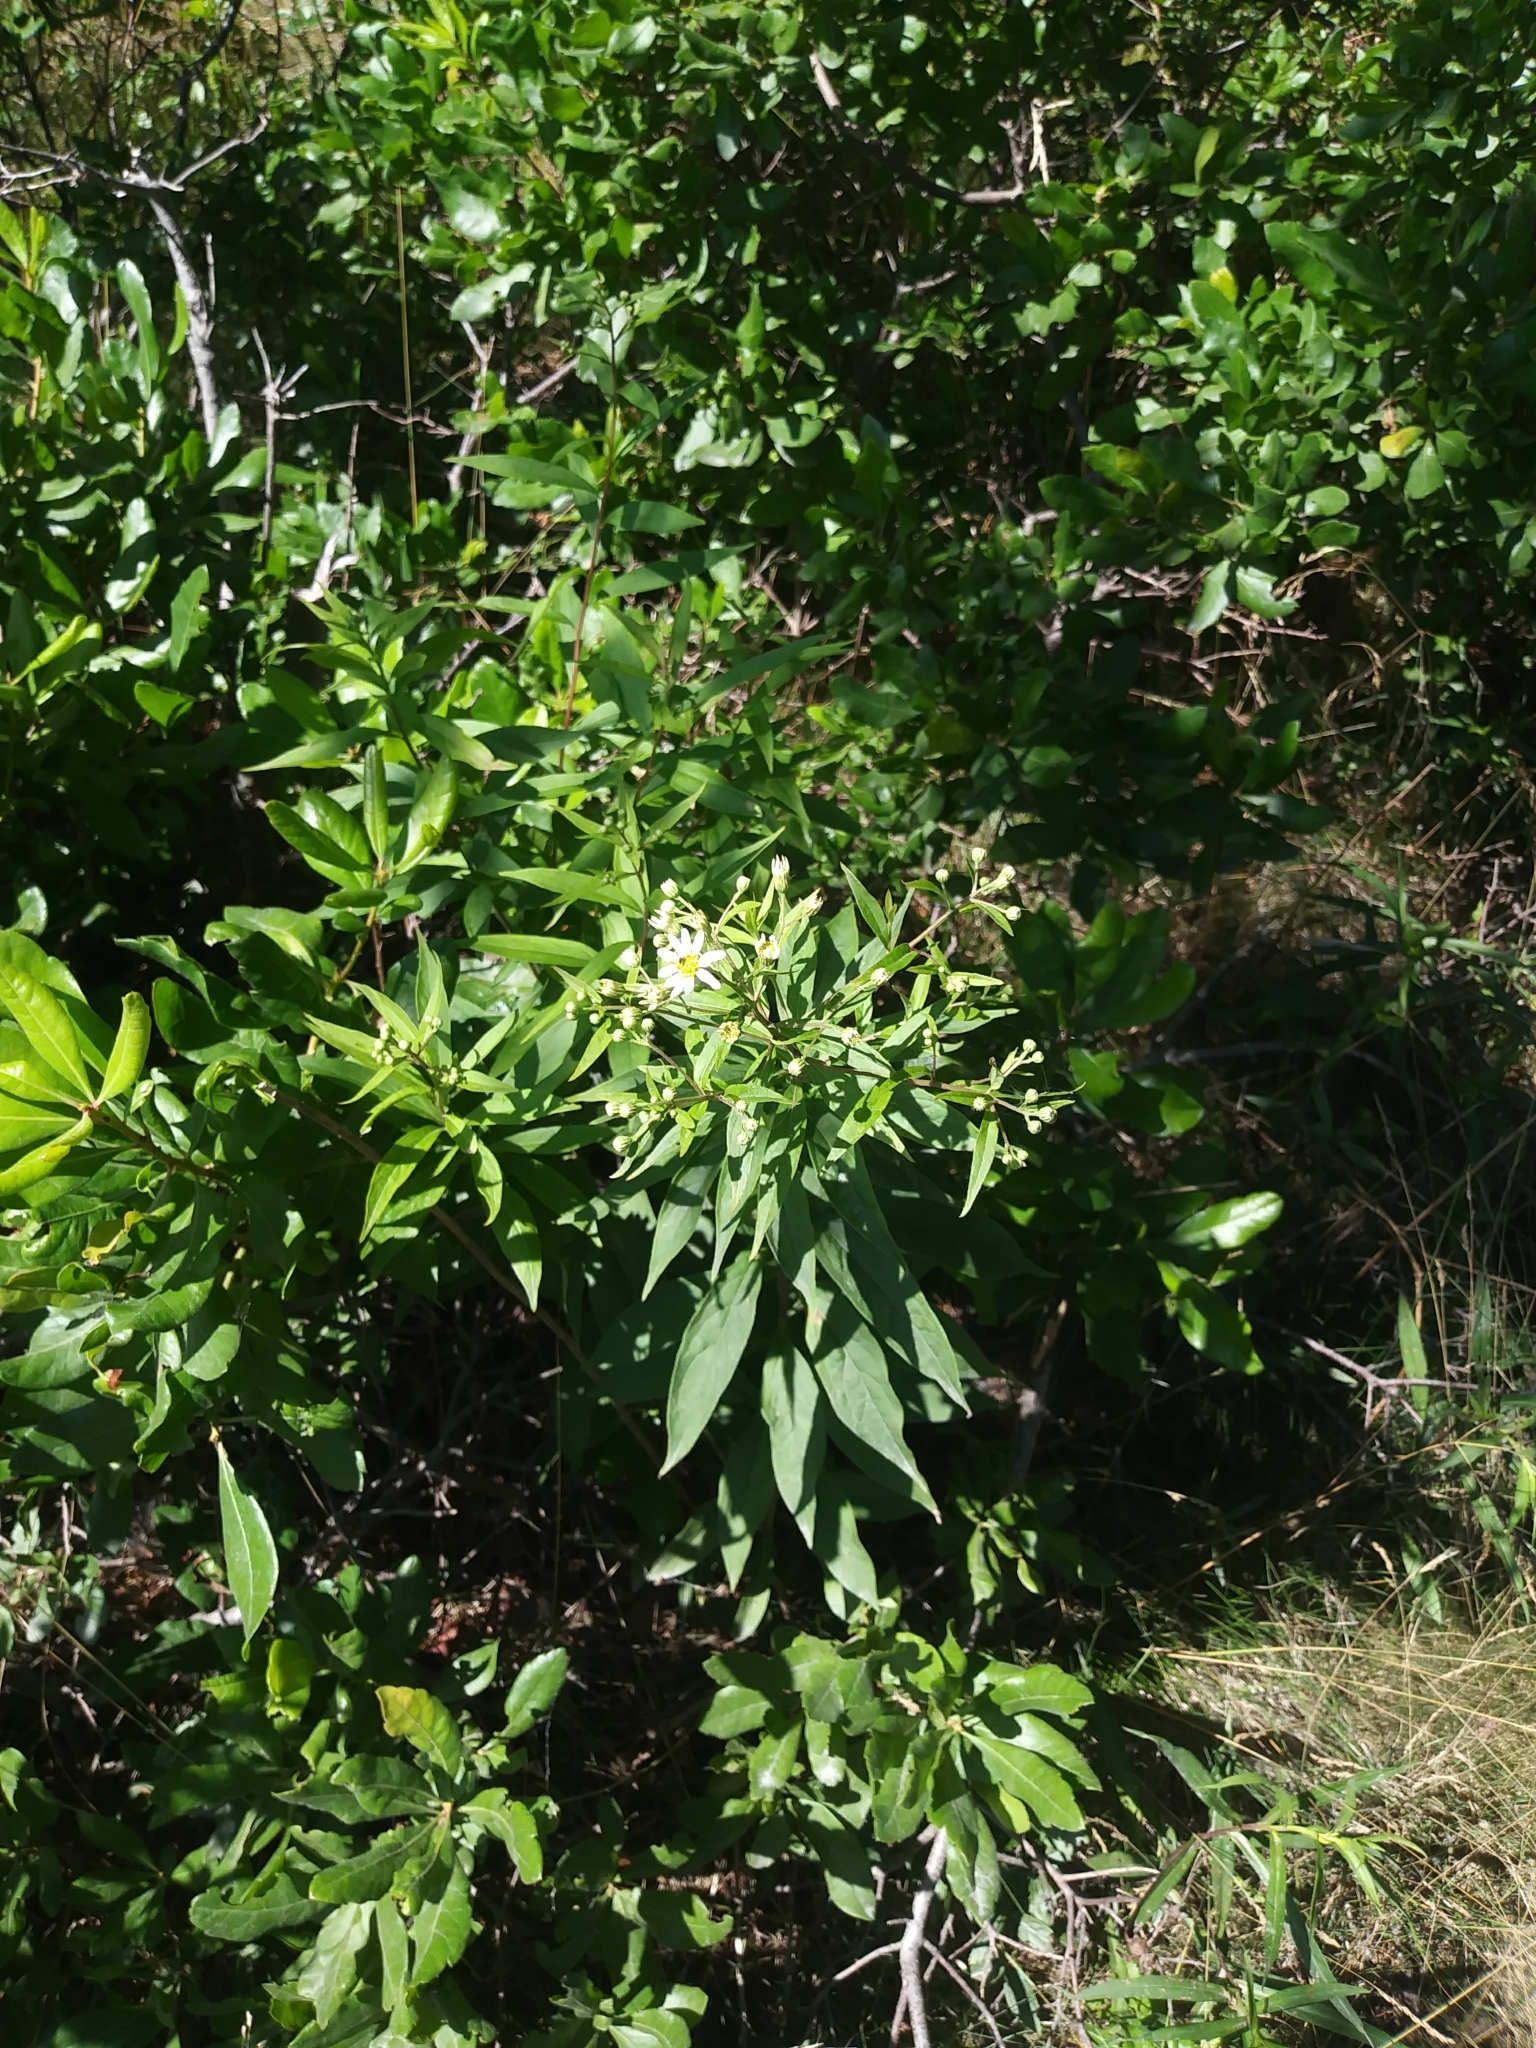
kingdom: Plantae
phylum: Tracheophyta
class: Magnoliopsida
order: Asterales
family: Asteraceae
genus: Doellingeria
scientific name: Doellingeria umbellata
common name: Flat-top white aster
